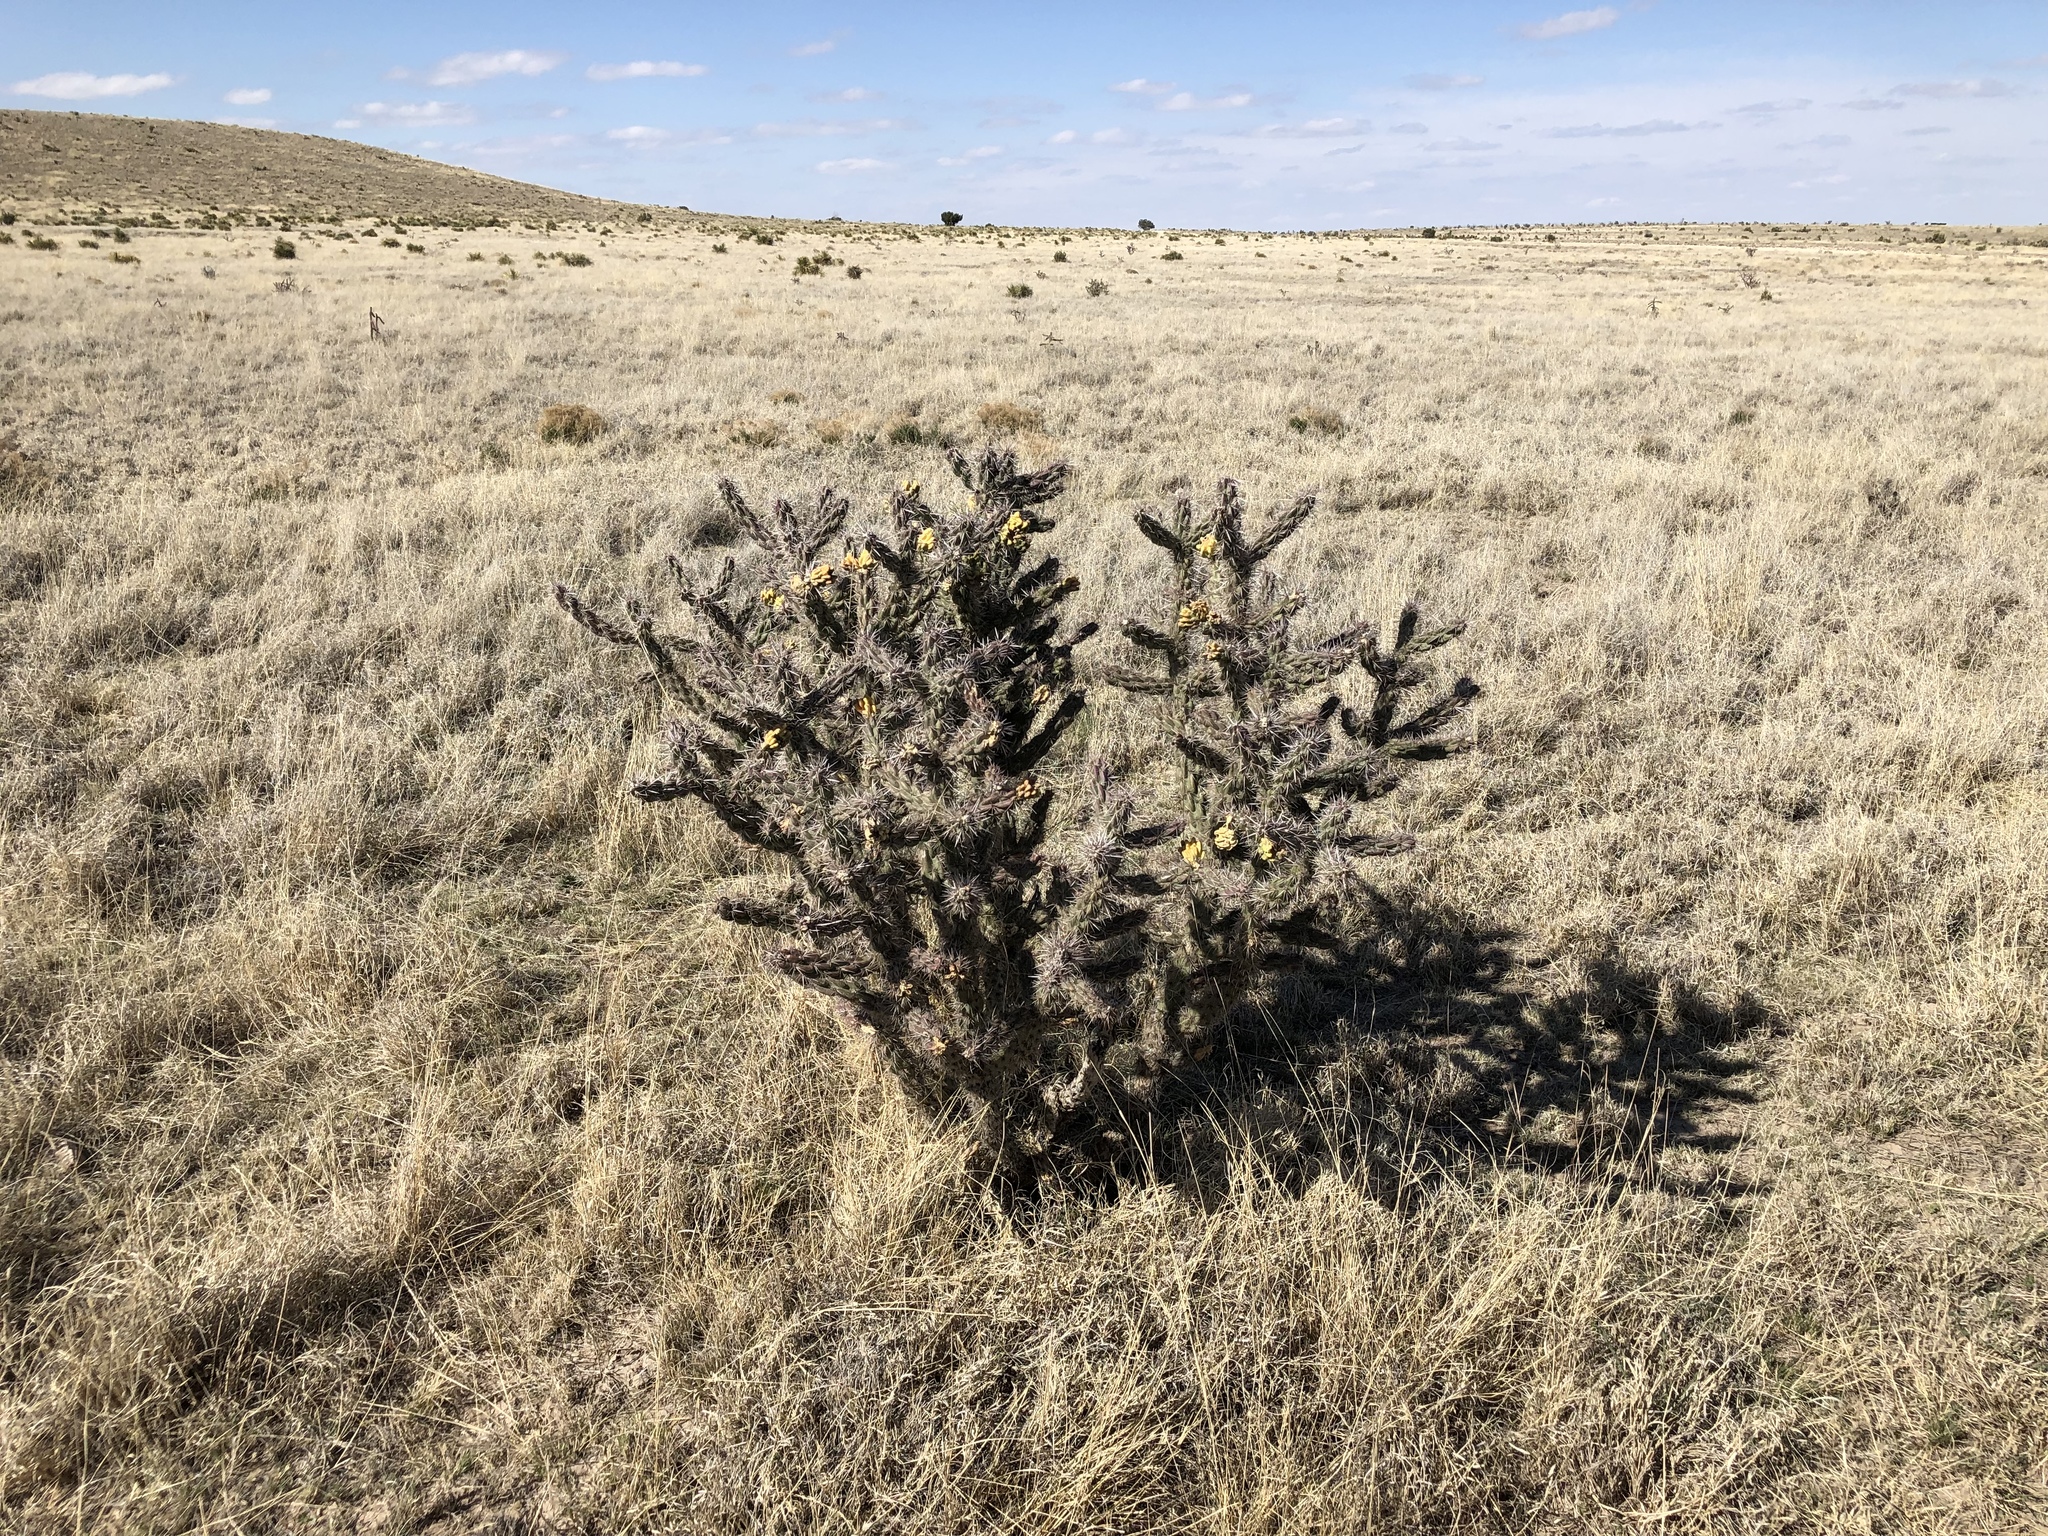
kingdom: Plantae
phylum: Tracheophyta
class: Magnoliopsida
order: Caryophyllales
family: Cactaceae
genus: Cylindropuntia
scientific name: Cylindropuntia imbricata
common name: Candelabrum cactus
